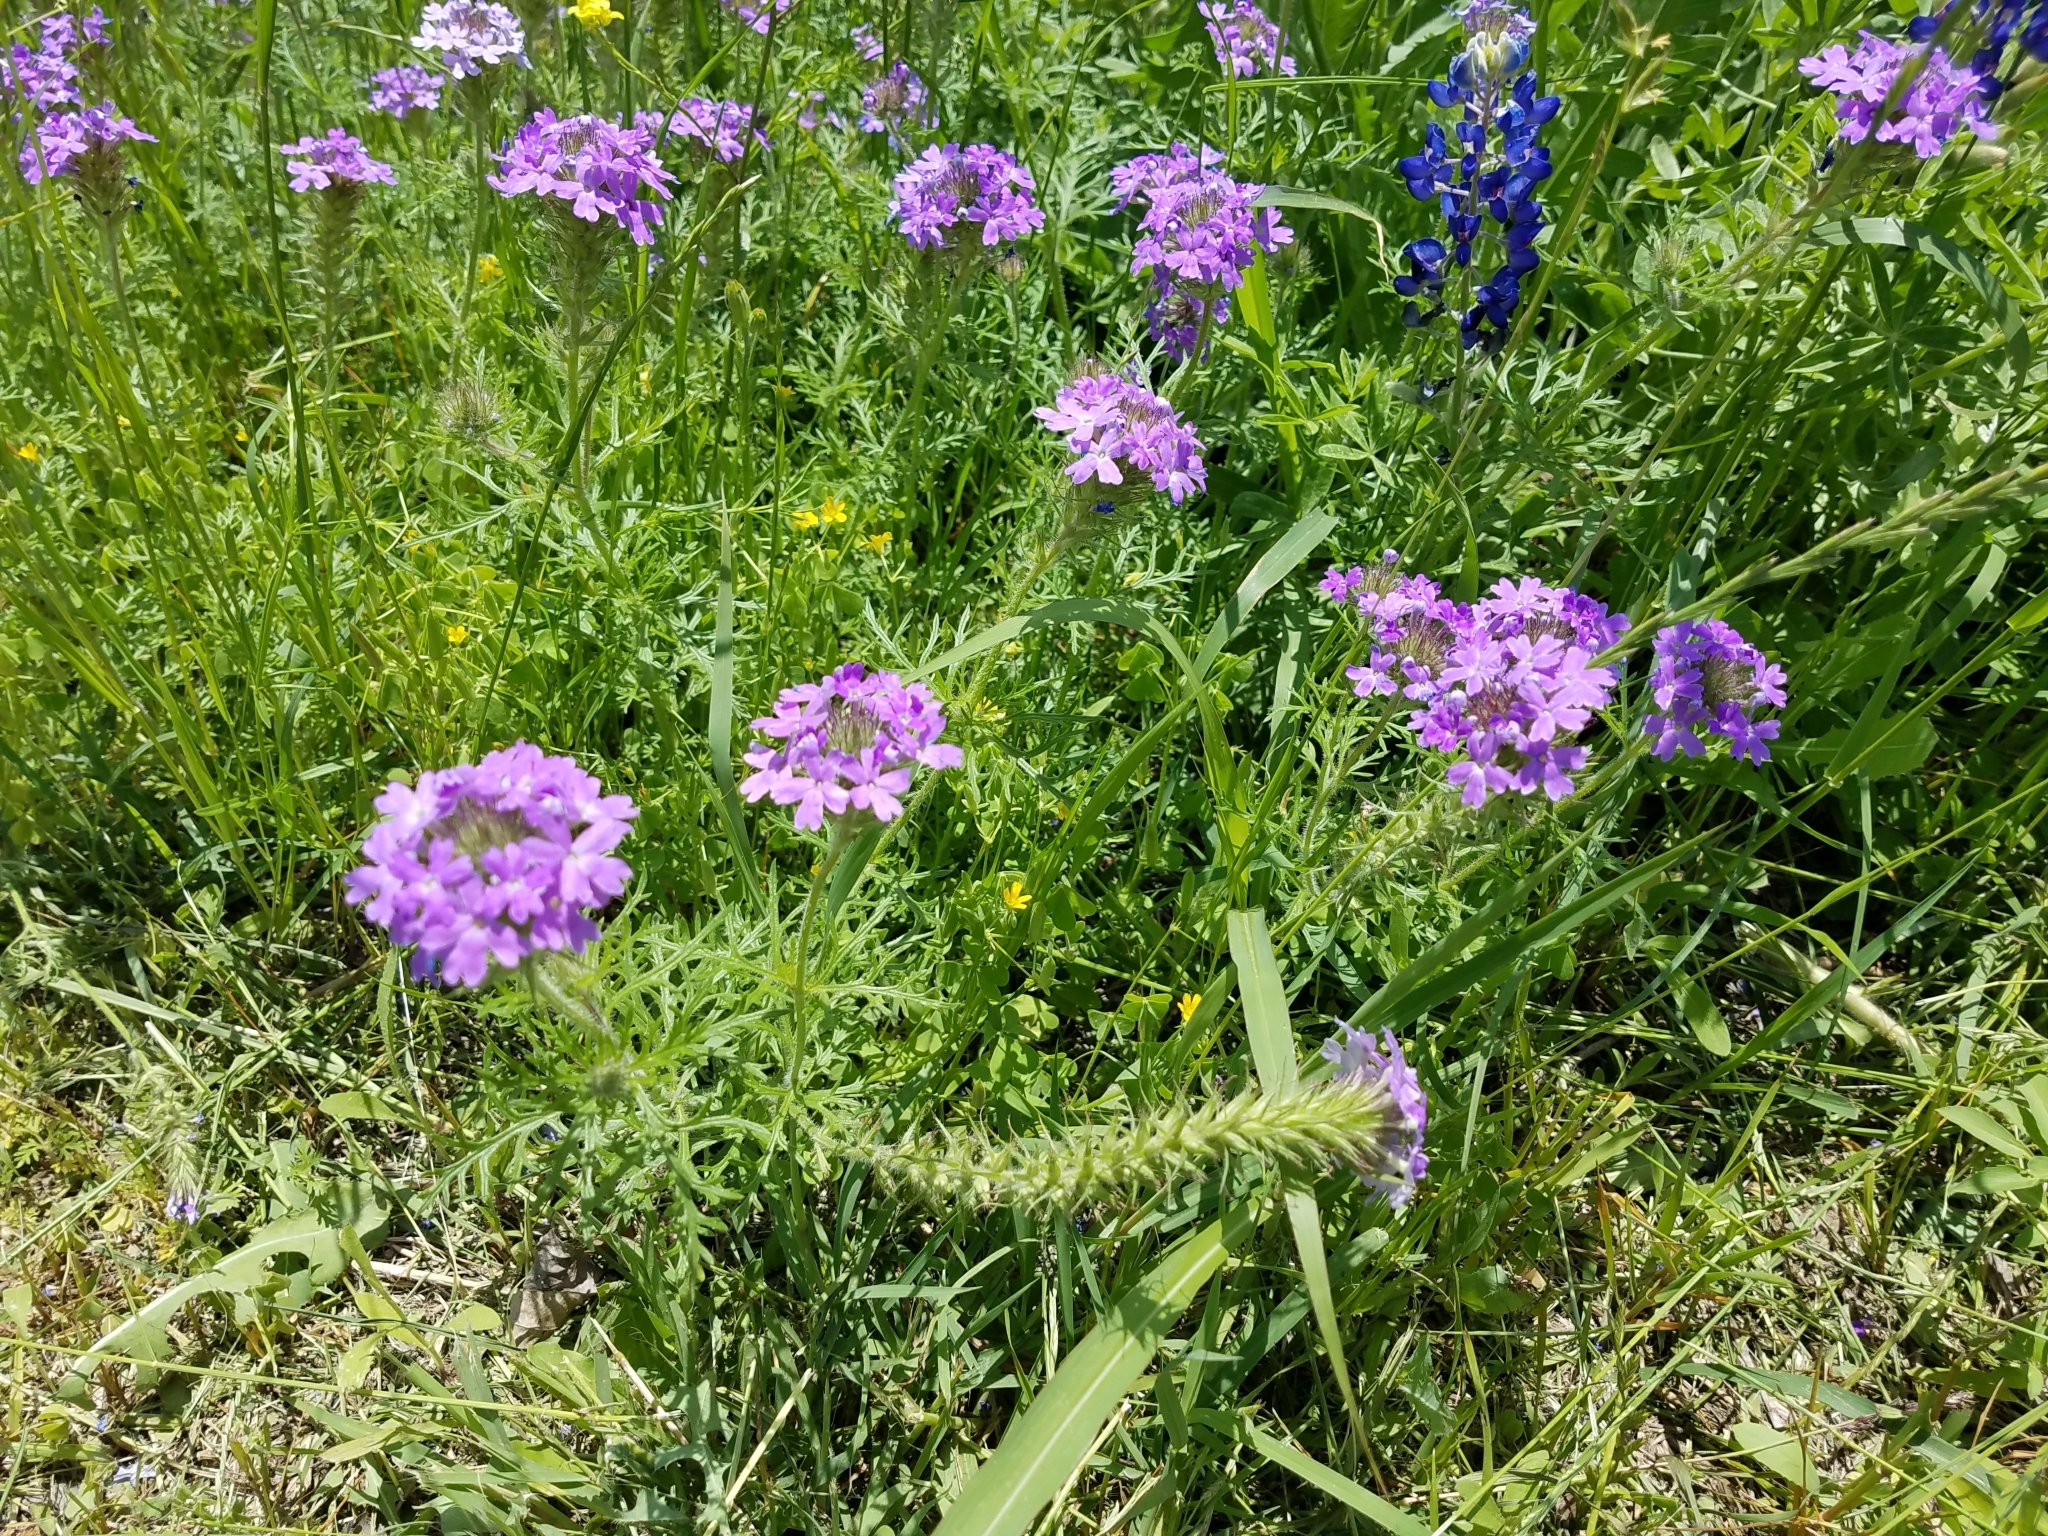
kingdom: Plantae
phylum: Tracheophyta
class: Magnoliopsida
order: Lamiales
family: Verbenaceae
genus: Verbena
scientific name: Verbena bipinnatifida
